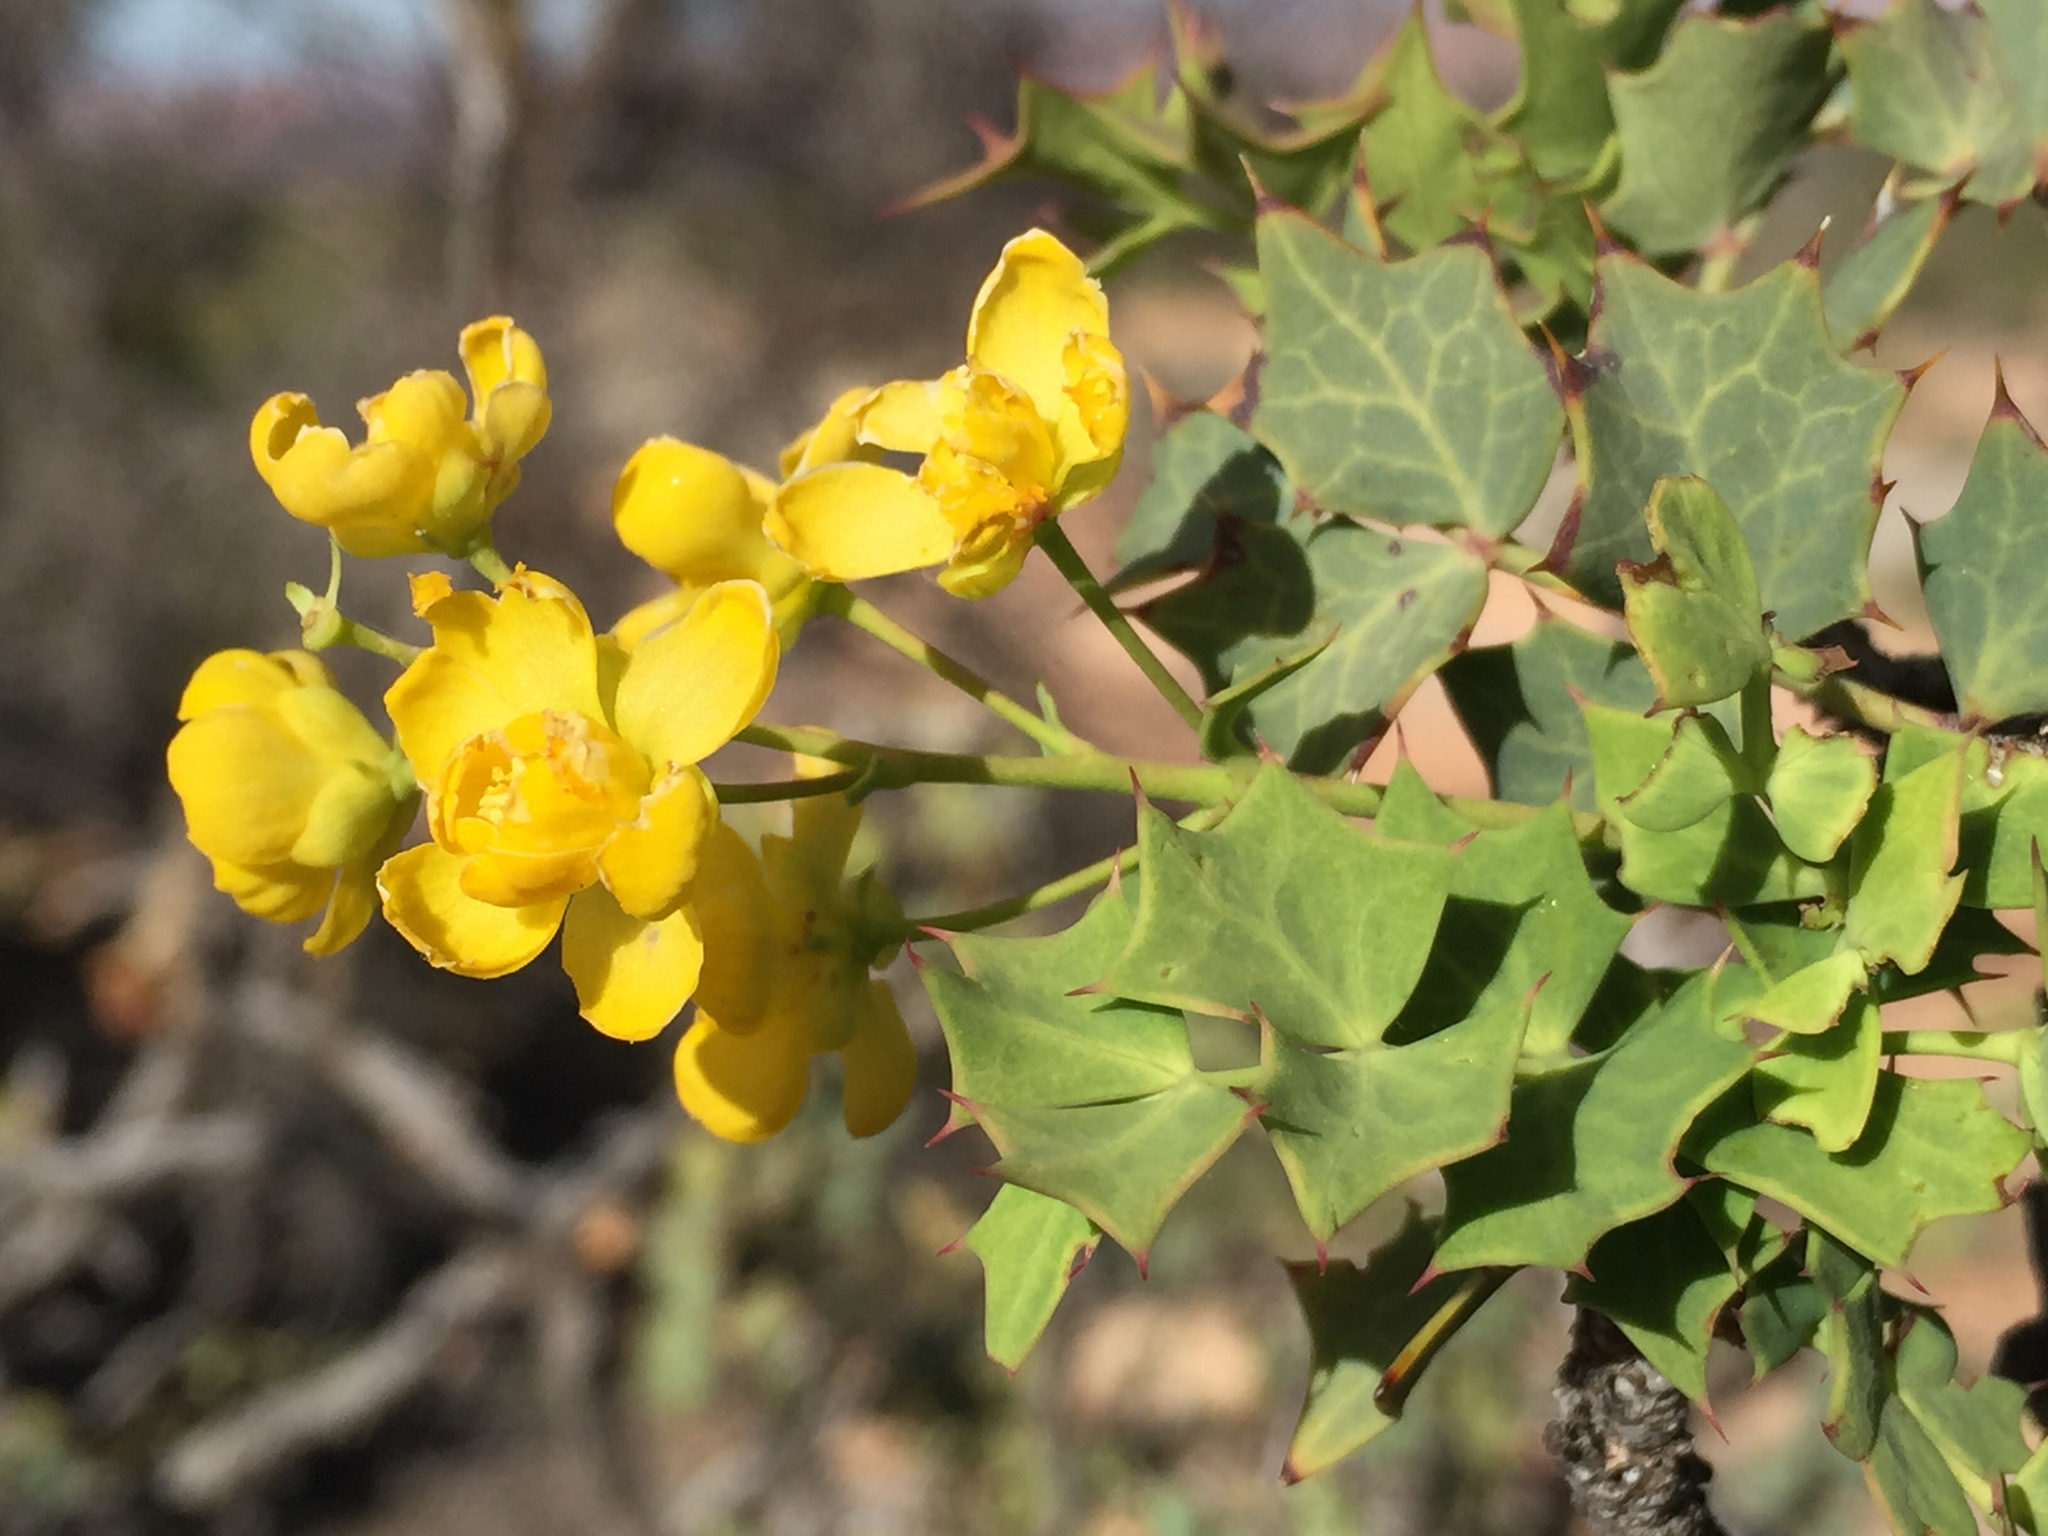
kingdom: Plantae
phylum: Tracheophyta
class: Magnoliopsida
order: Ranunculales
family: Berberidaceae
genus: Alloberberis
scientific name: Alloberberis fremontii
